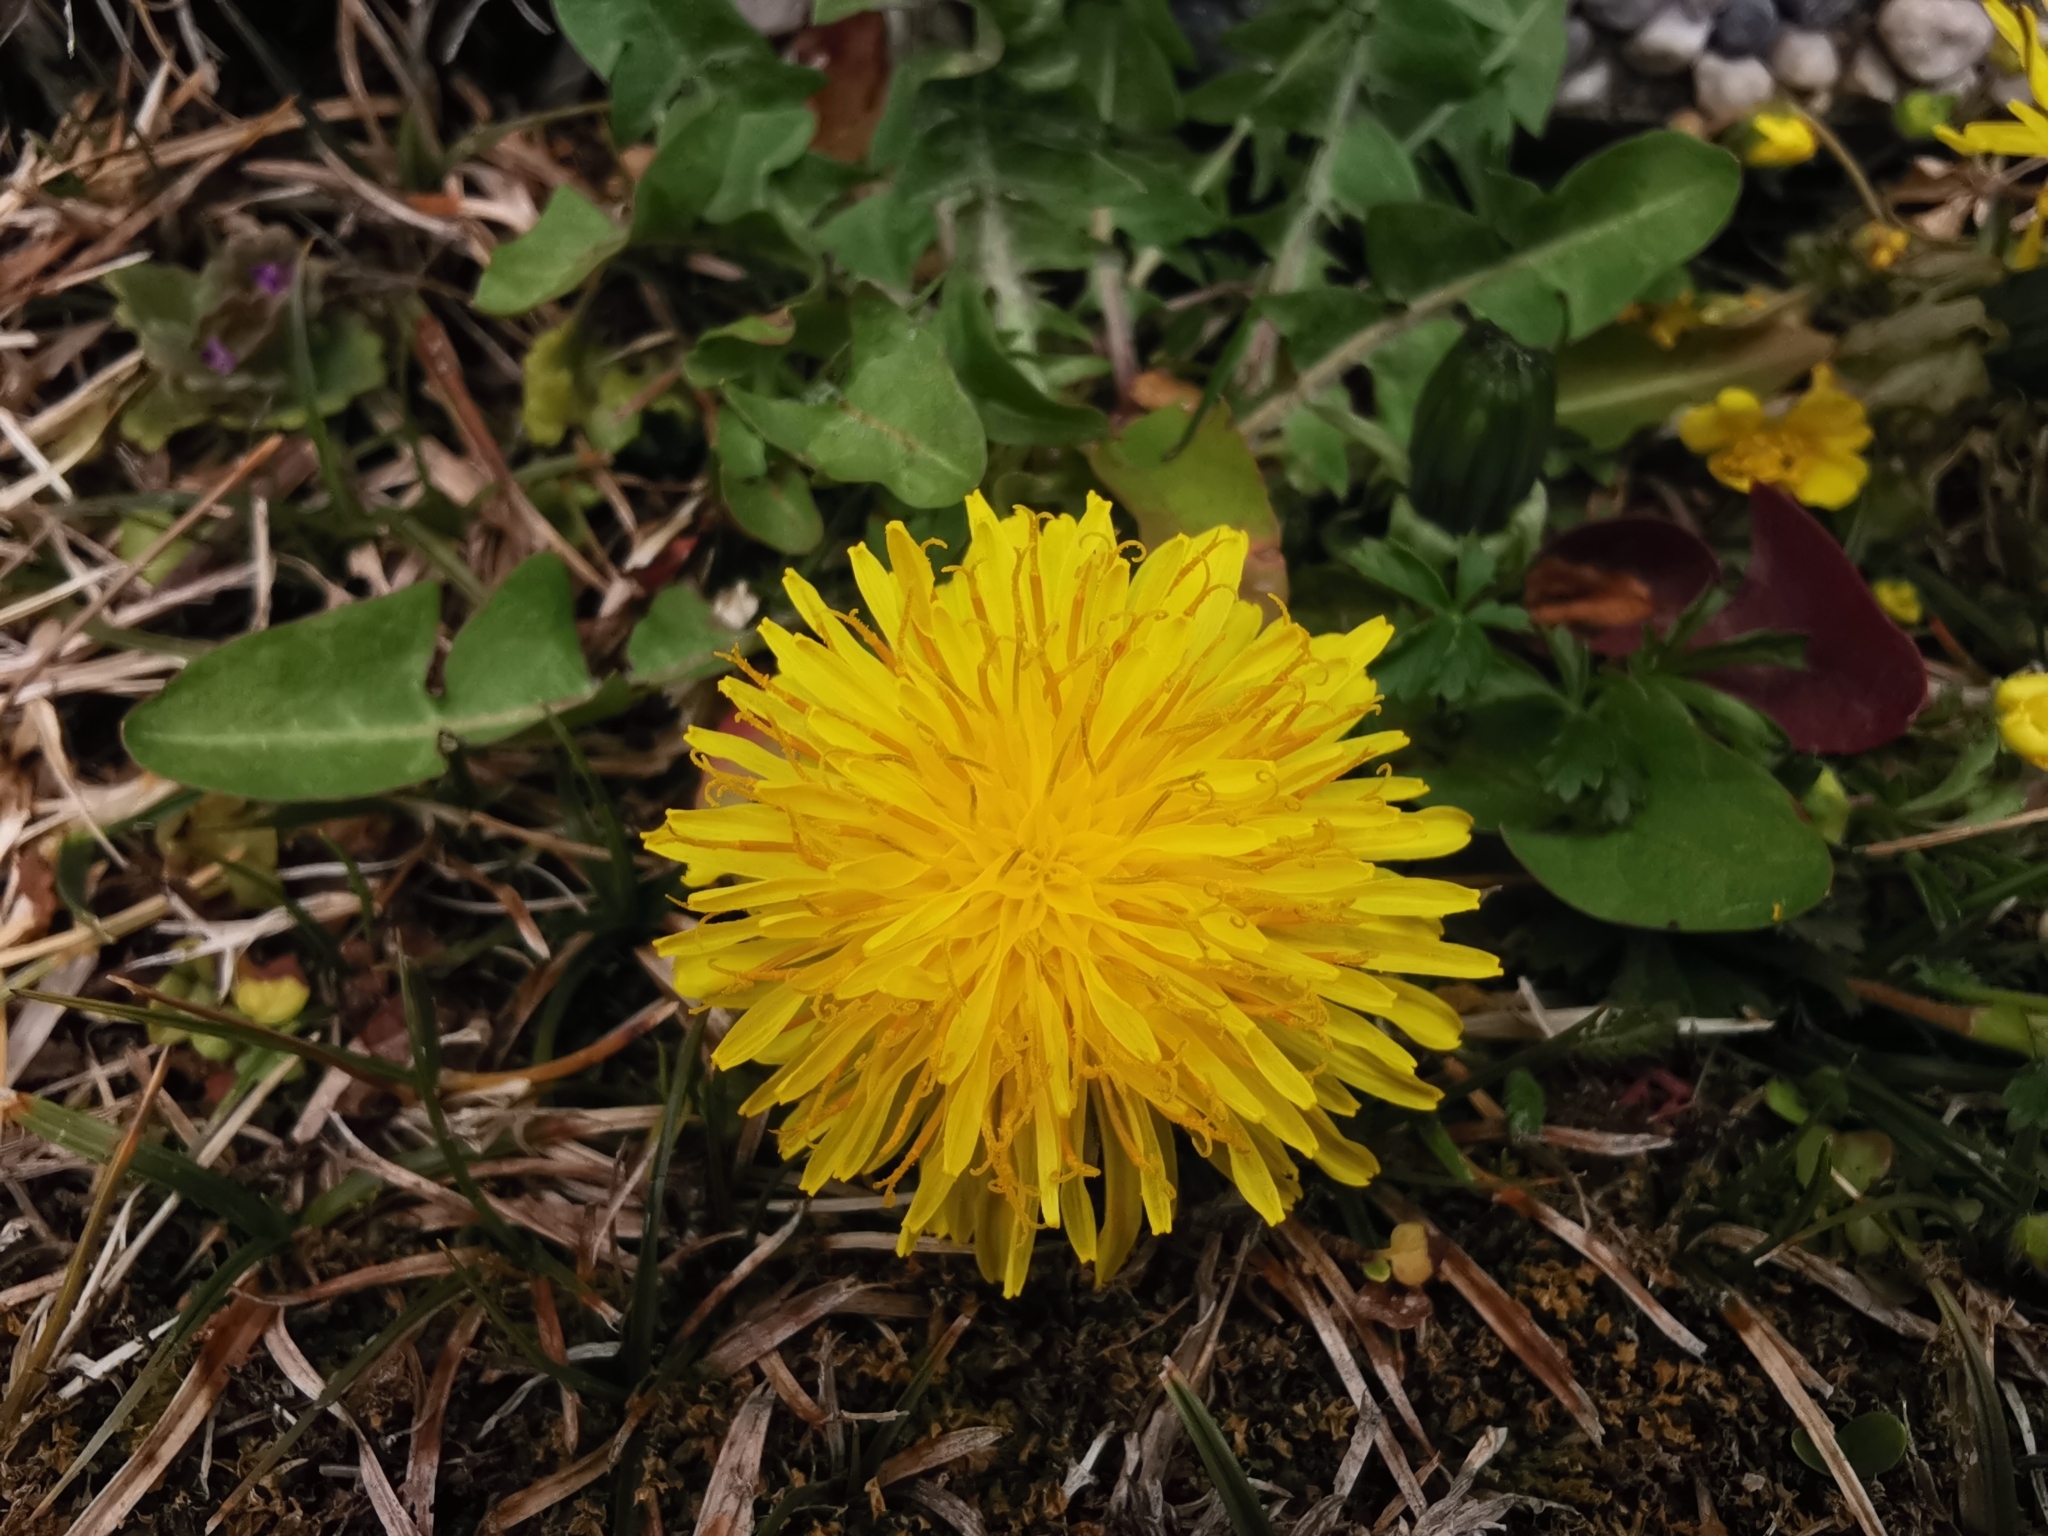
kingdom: Plantae
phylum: Tracheophyta
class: Magnoliopsida
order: Asterales
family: Asteraceae
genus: Taraxacum
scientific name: Taraxacum officinale
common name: Common dandelion
